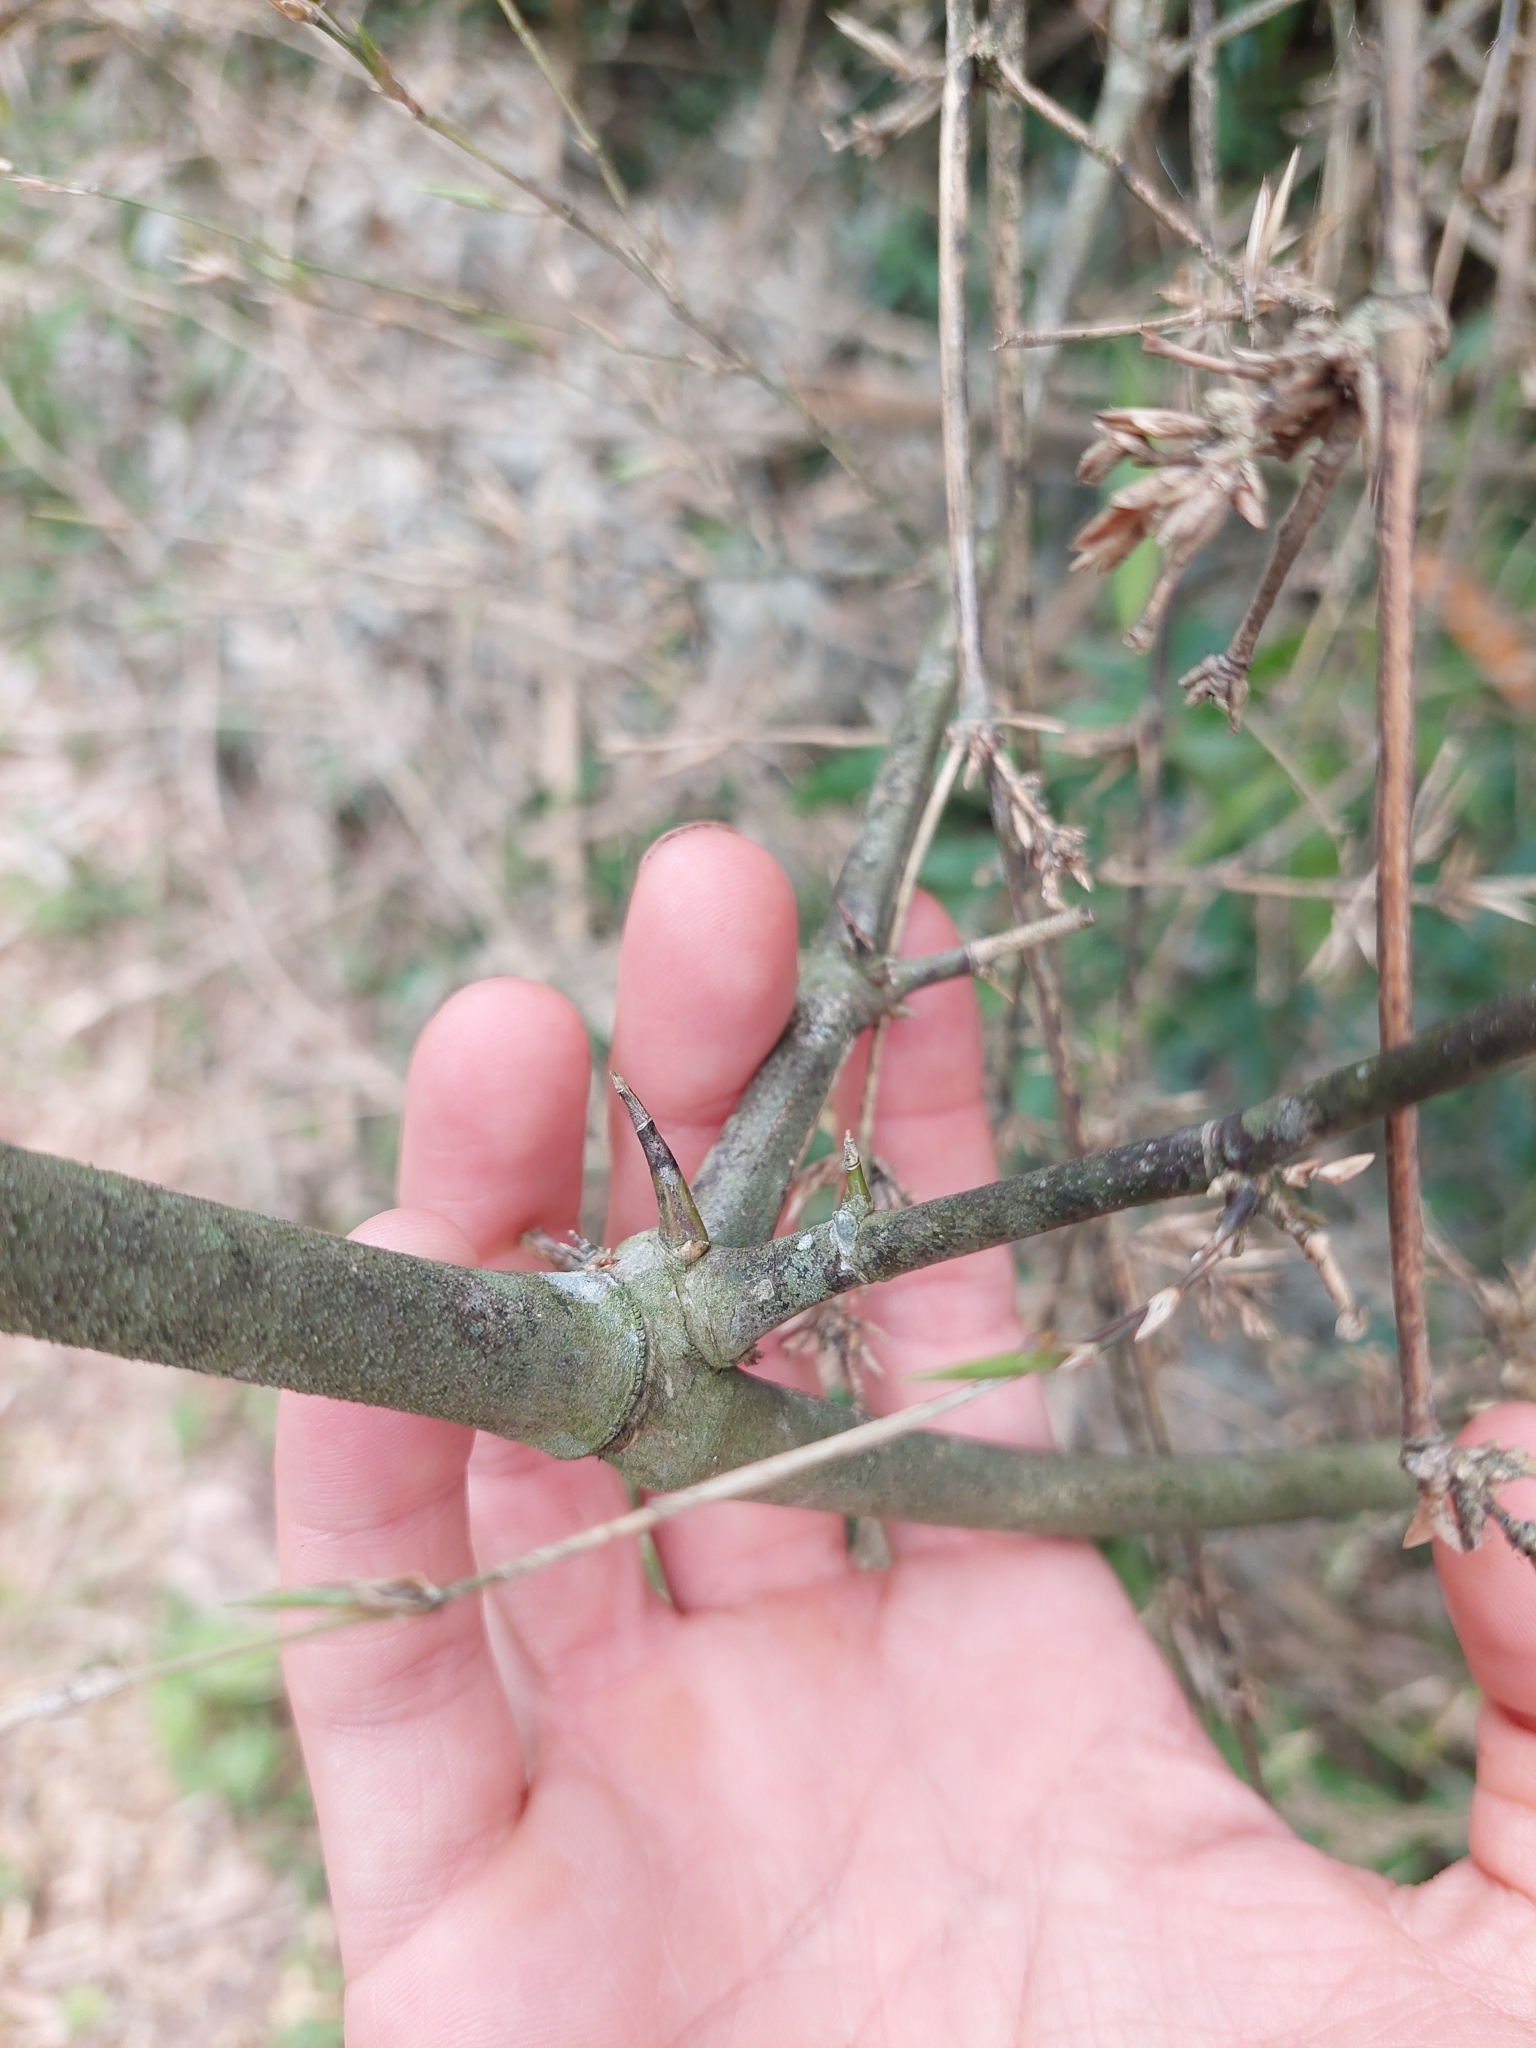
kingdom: Plantae
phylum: Tracheophyta
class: Liliopsida
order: Poales
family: Poaceae
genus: Guadua
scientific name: Guadua trinii
